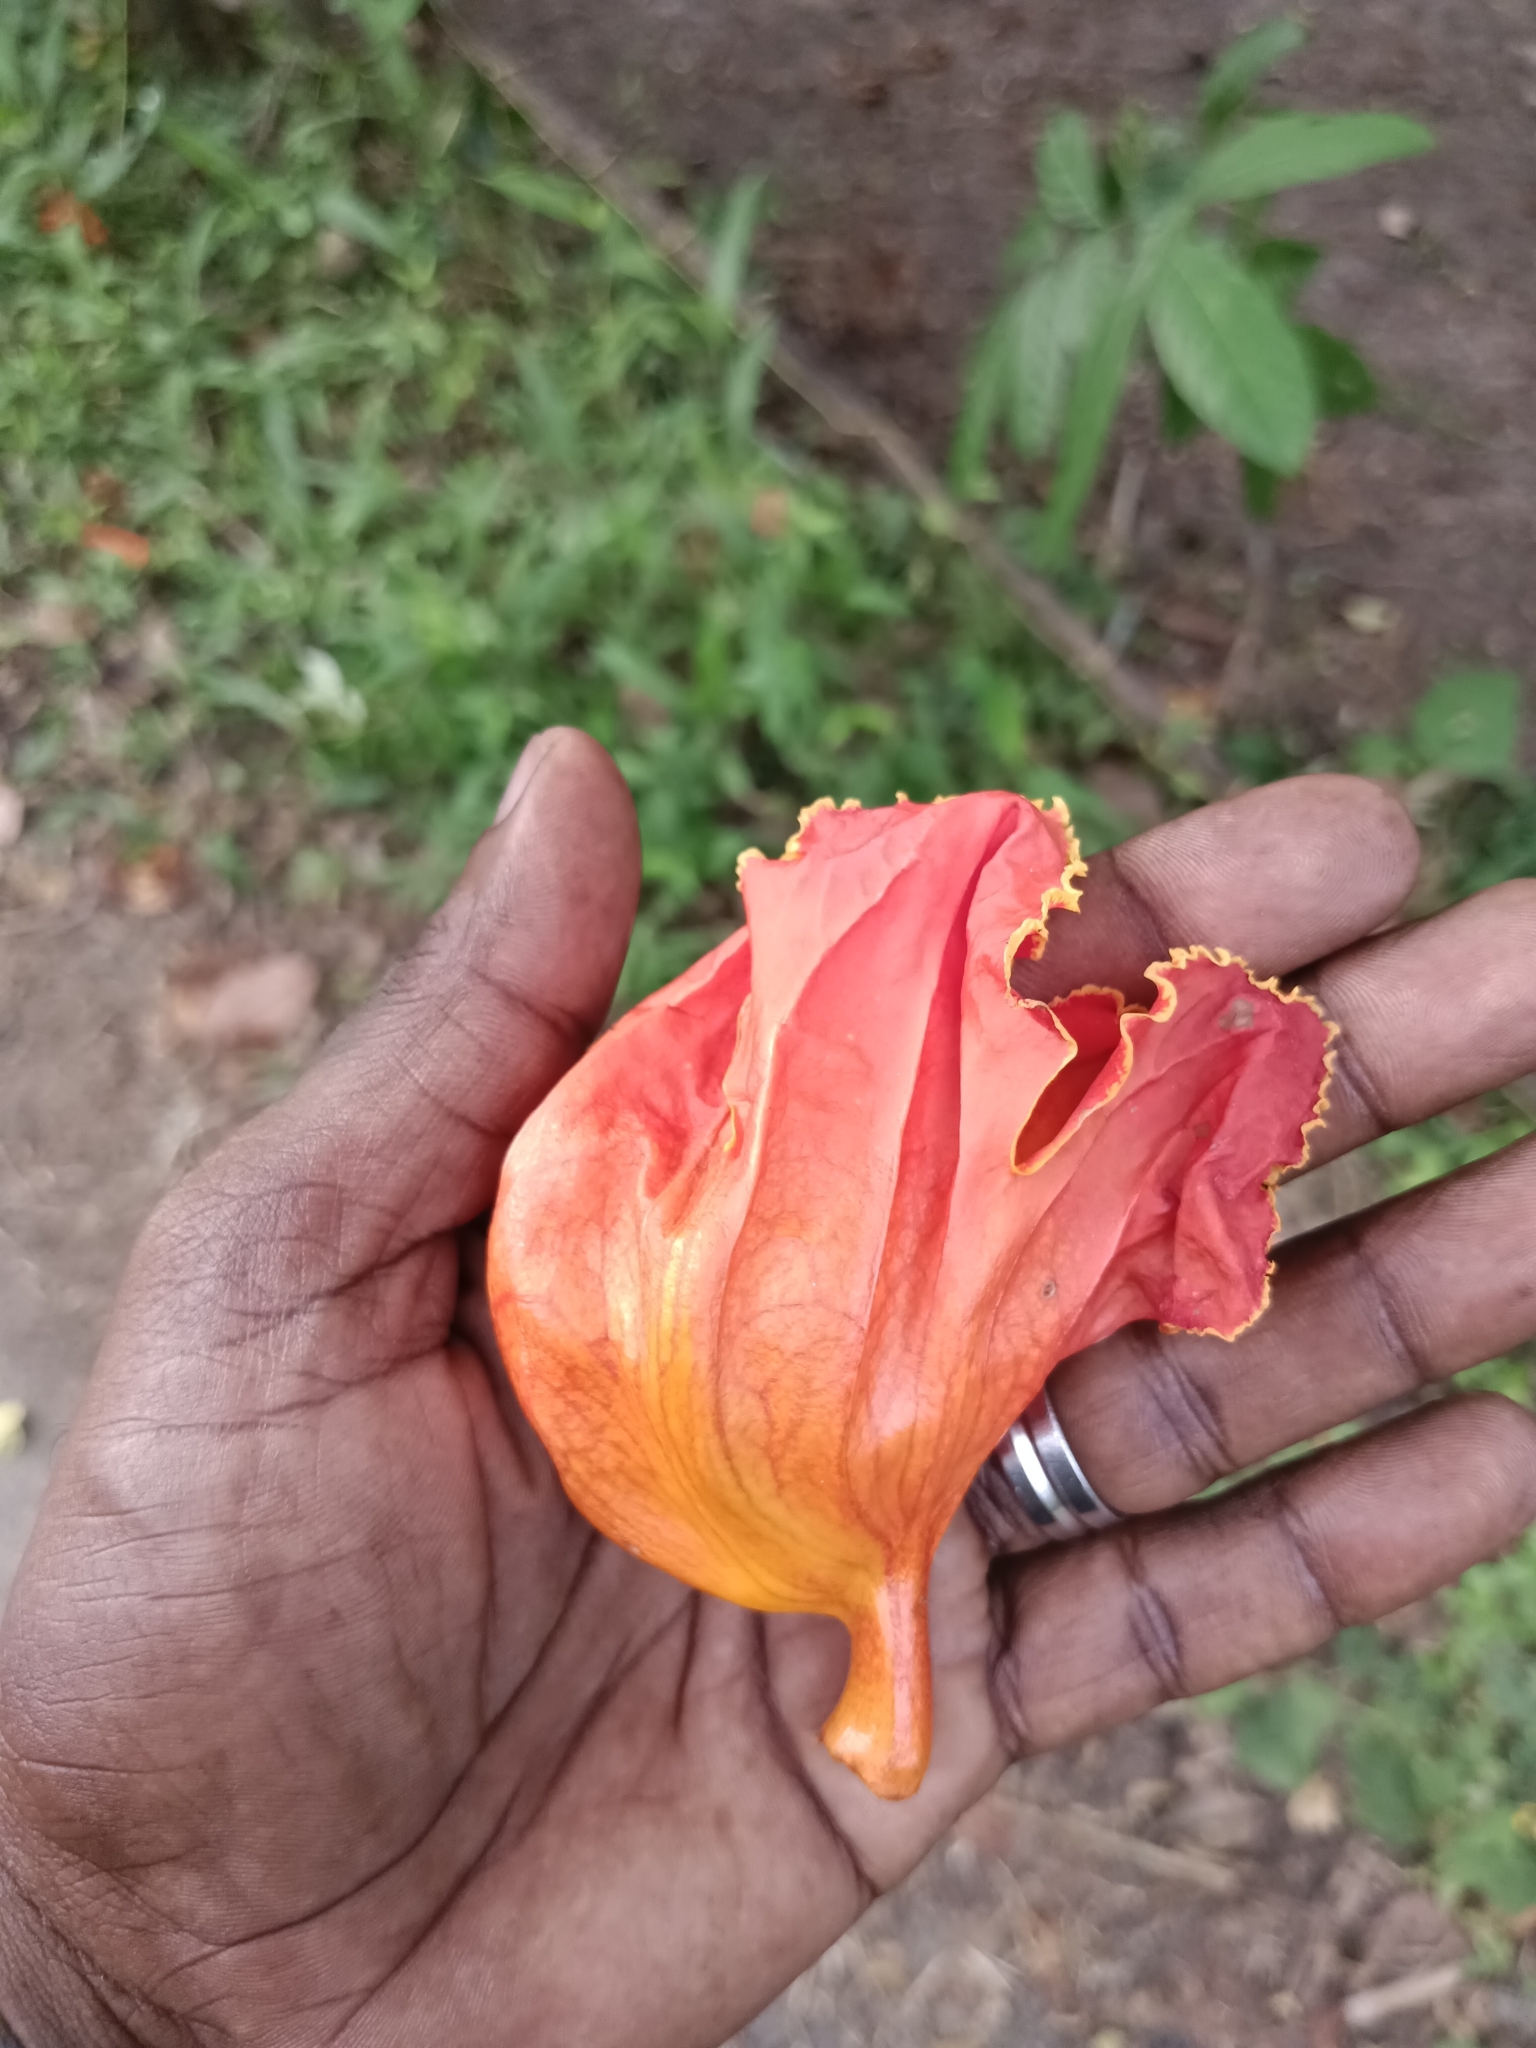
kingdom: Plantae
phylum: Tracheophyta
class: Magnoliopsida
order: Lamiales
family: Bignoniaceae
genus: Spathodea
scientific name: Spathodea campanulata
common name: African tuliptree
